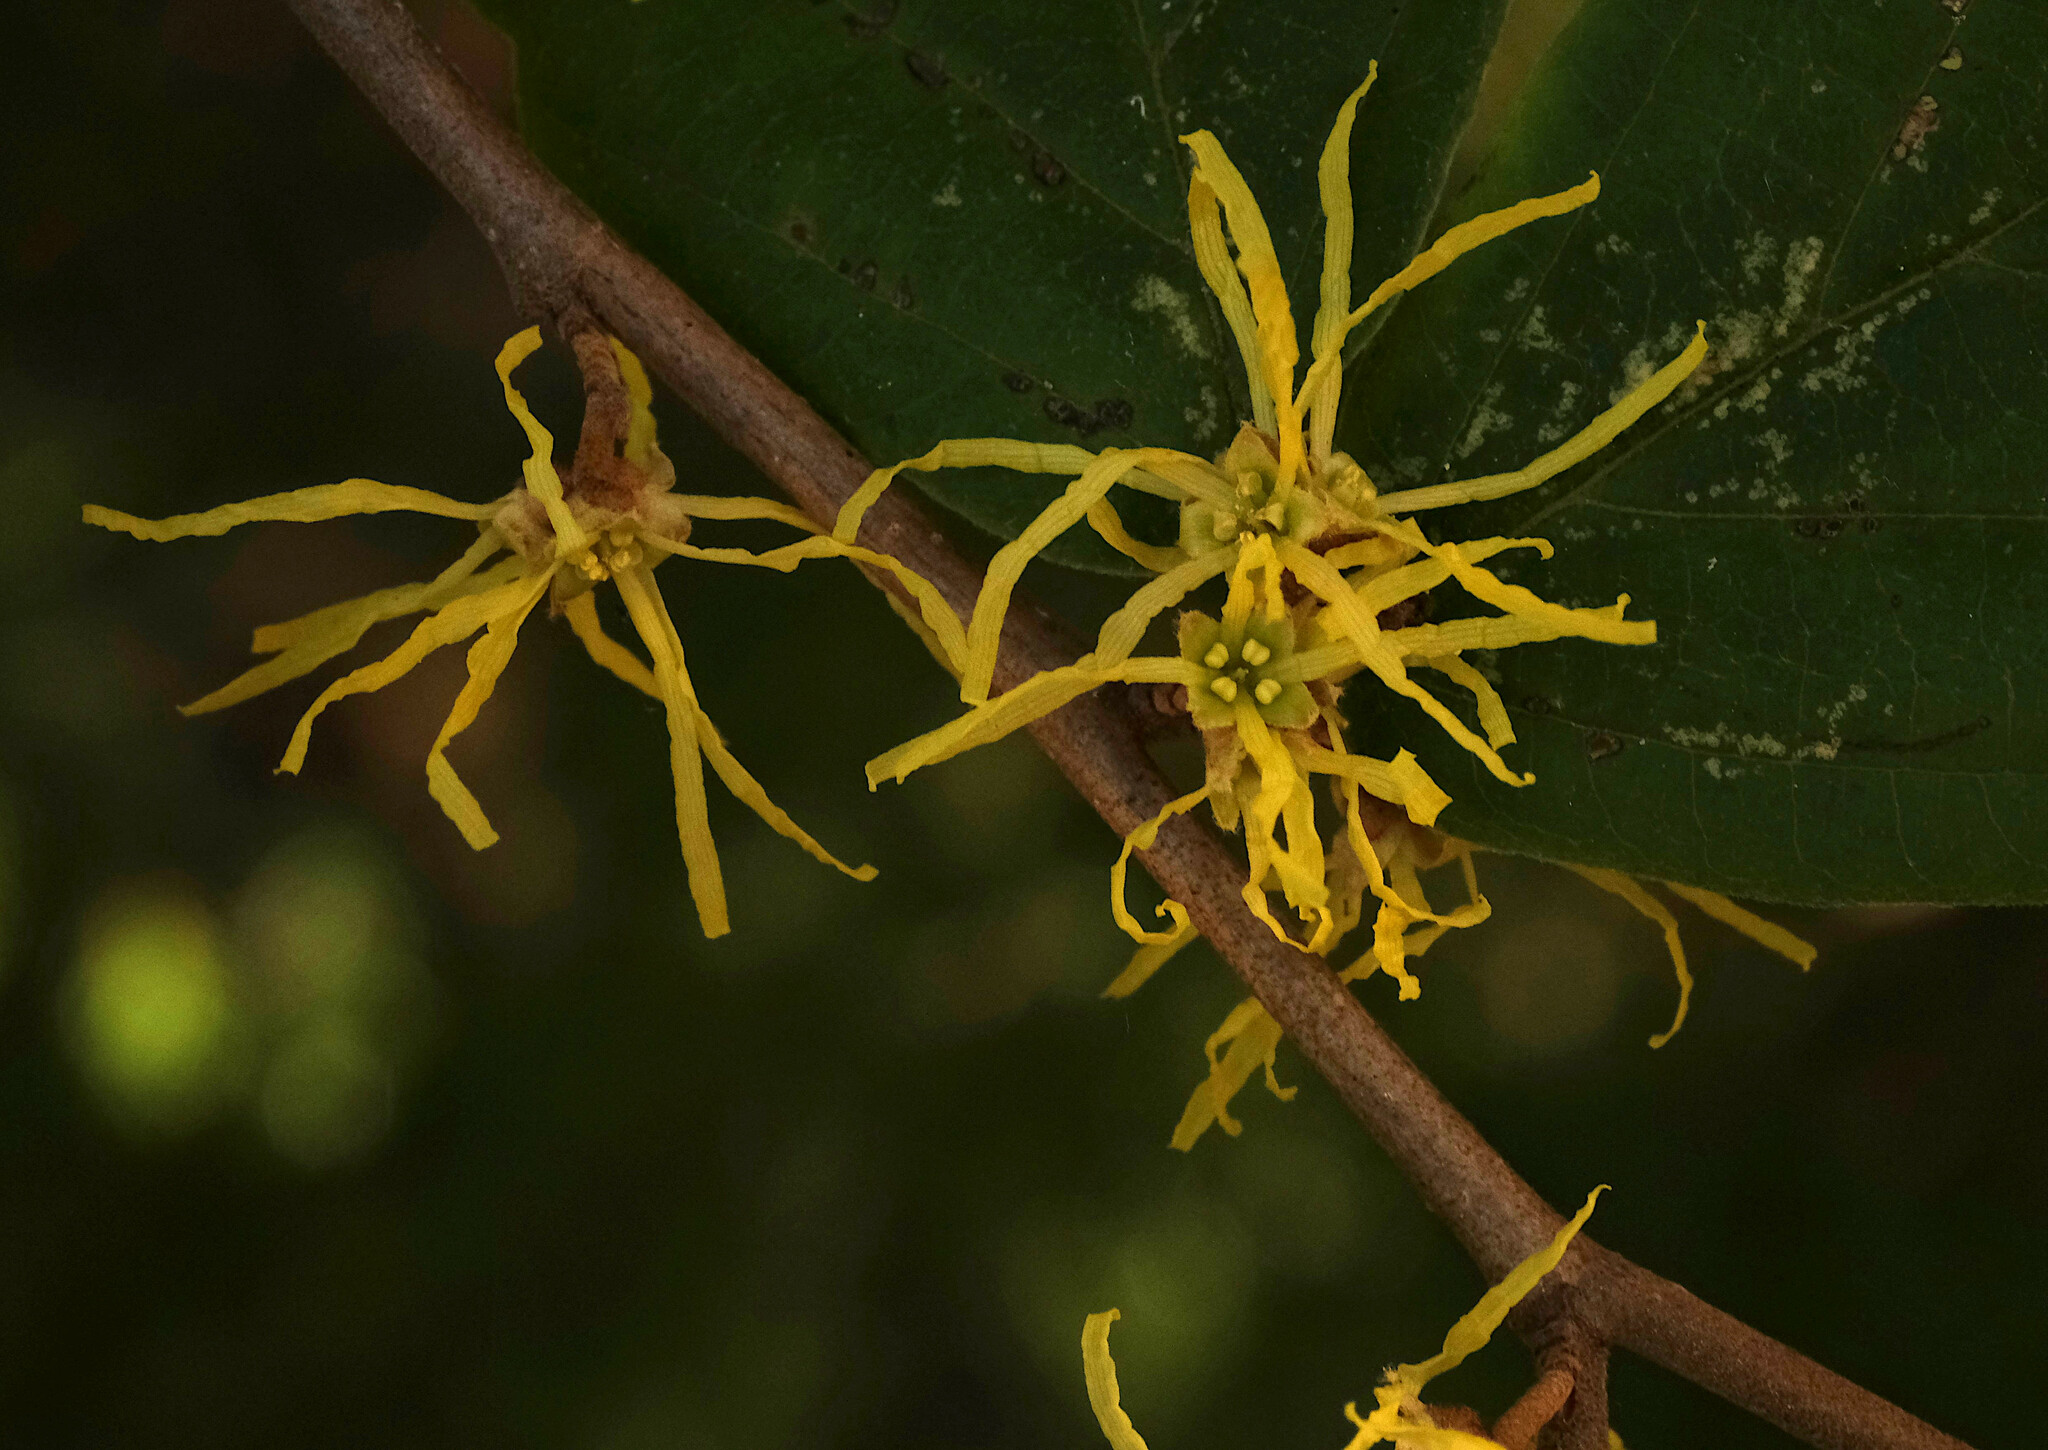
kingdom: Plantae
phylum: Tracheophyta
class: Magnoliopsida
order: Saxifragales
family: Hamamelidaceae
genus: Hamamelis
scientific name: Hamamelis virginiana
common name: Witch-hazel
